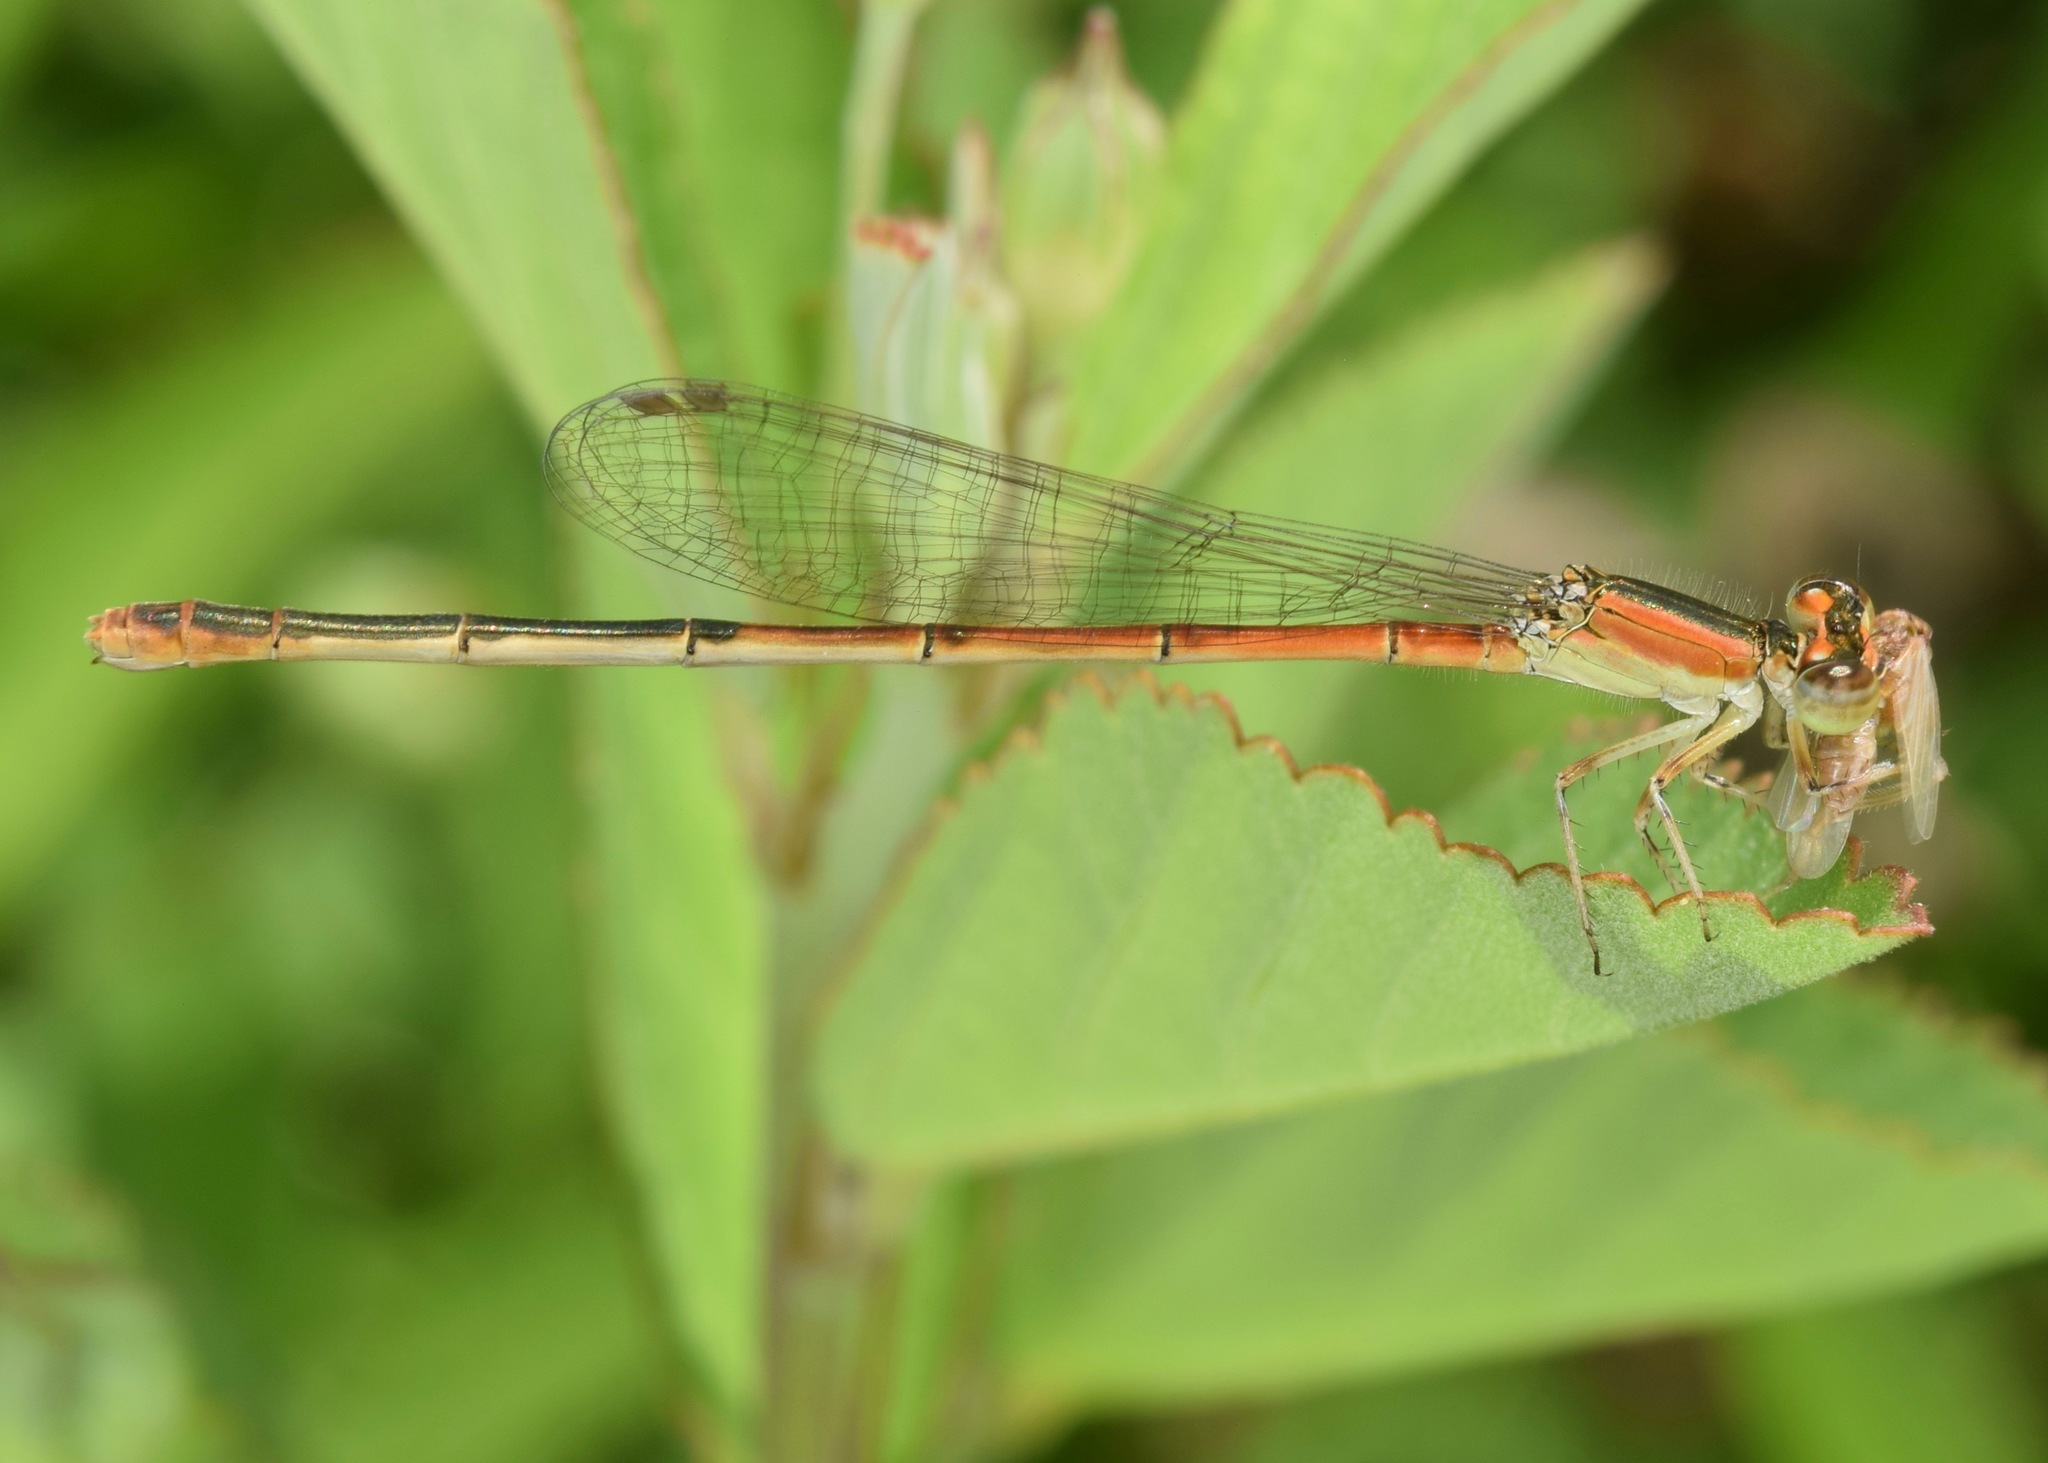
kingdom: Animalia
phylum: Arthropoda
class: Insecta
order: Odonata
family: Coenagrionidae
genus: Ischnura
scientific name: Ischnura hastata
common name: Citrine forktail
